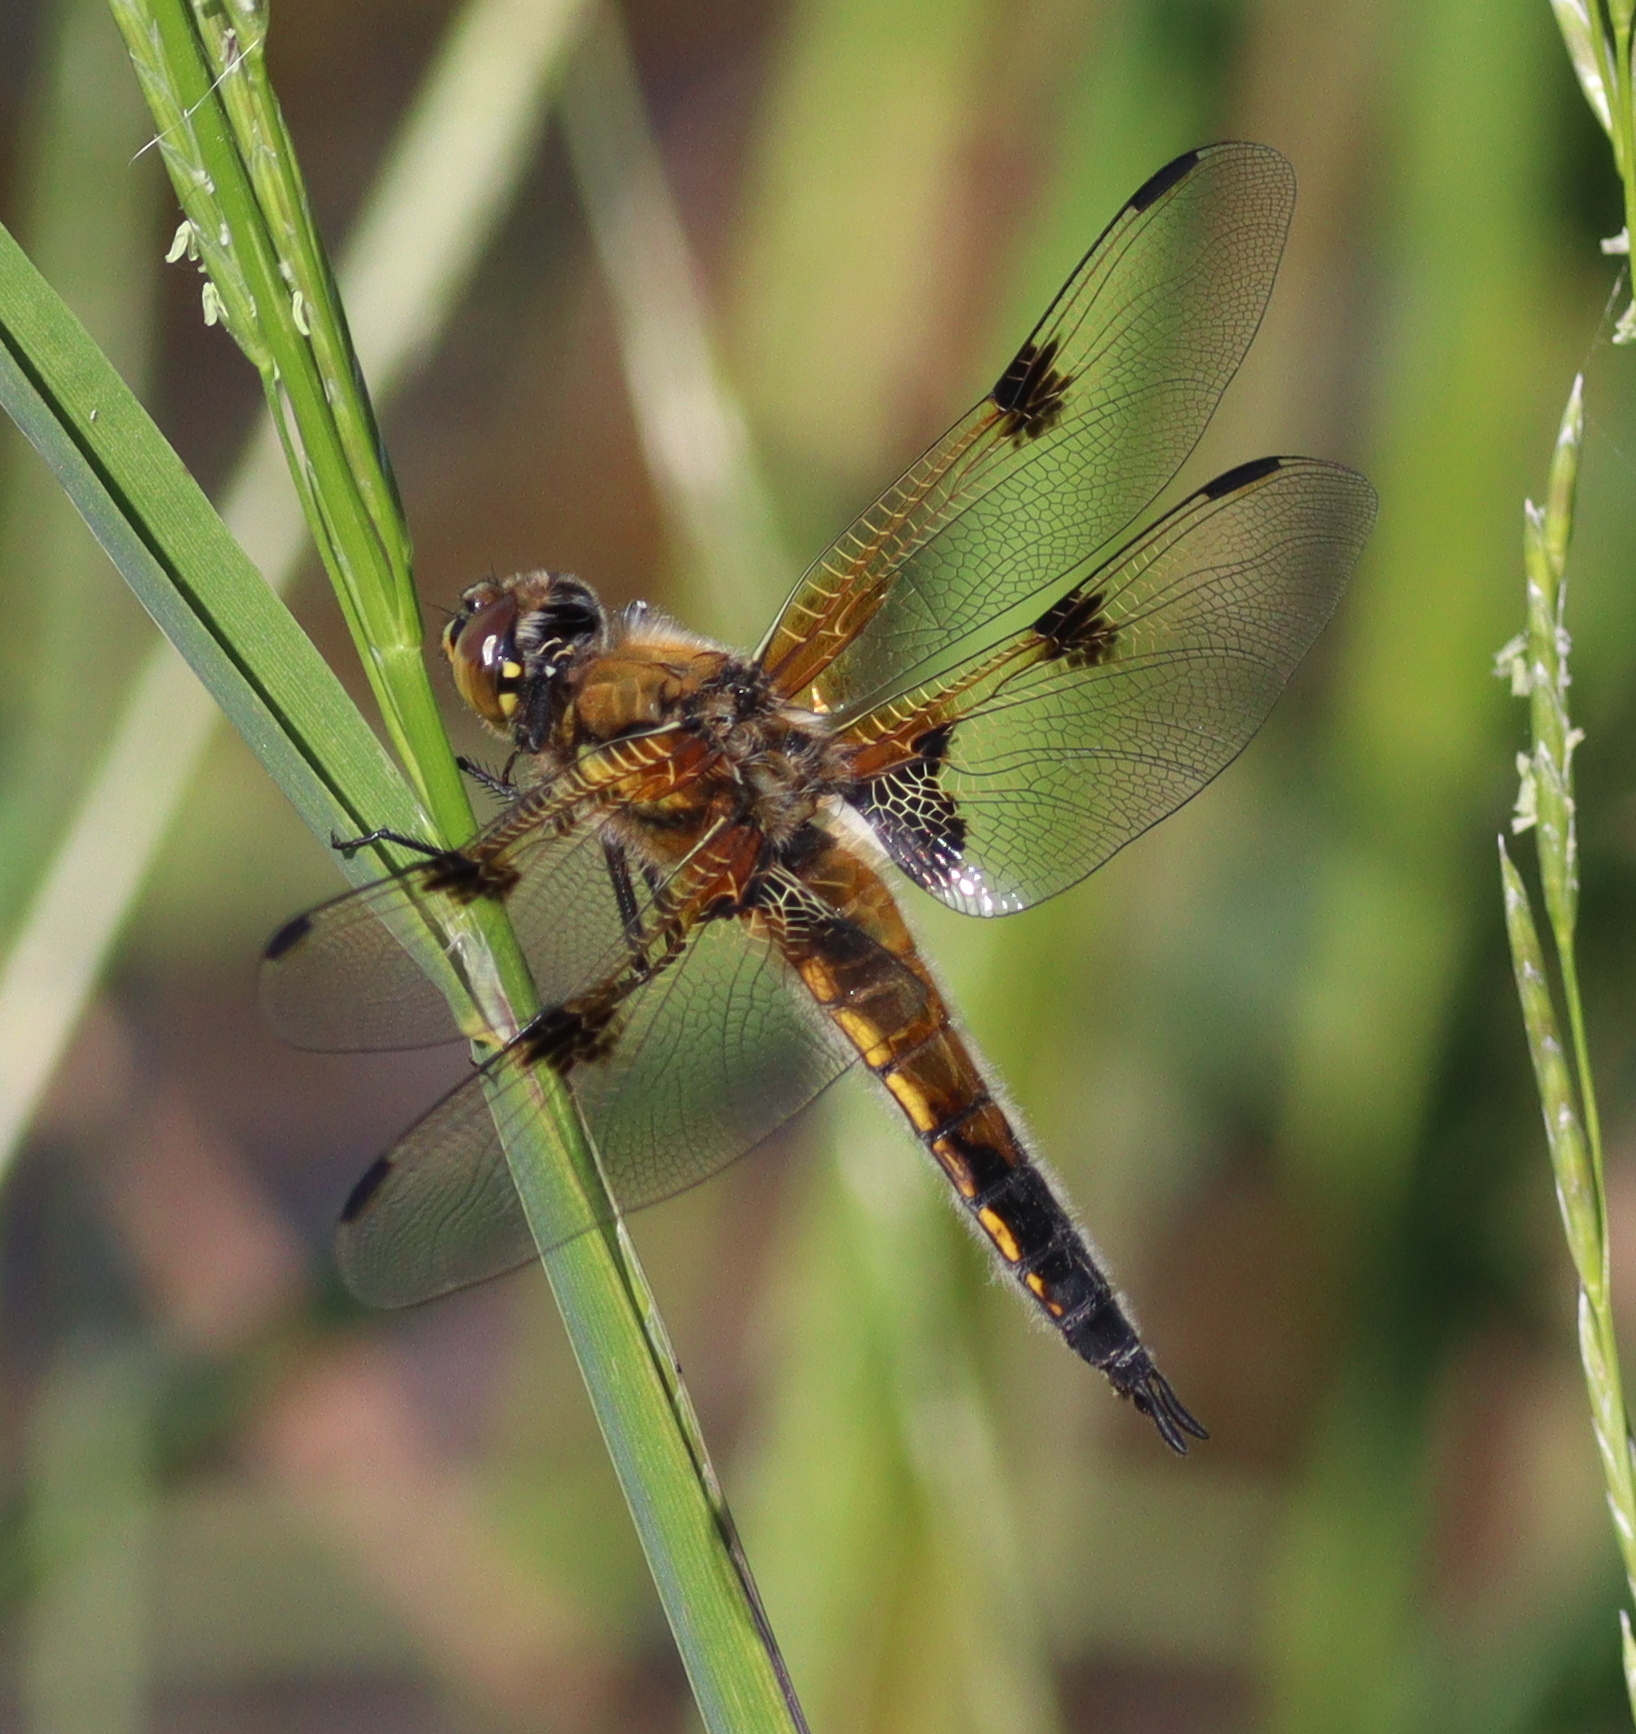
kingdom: Animalia
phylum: Arthropoda
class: Insecta
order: Odonata
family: Libellulidae
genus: Libellula
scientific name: Libellula quadrimaculata
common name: Four-spotted chaser
